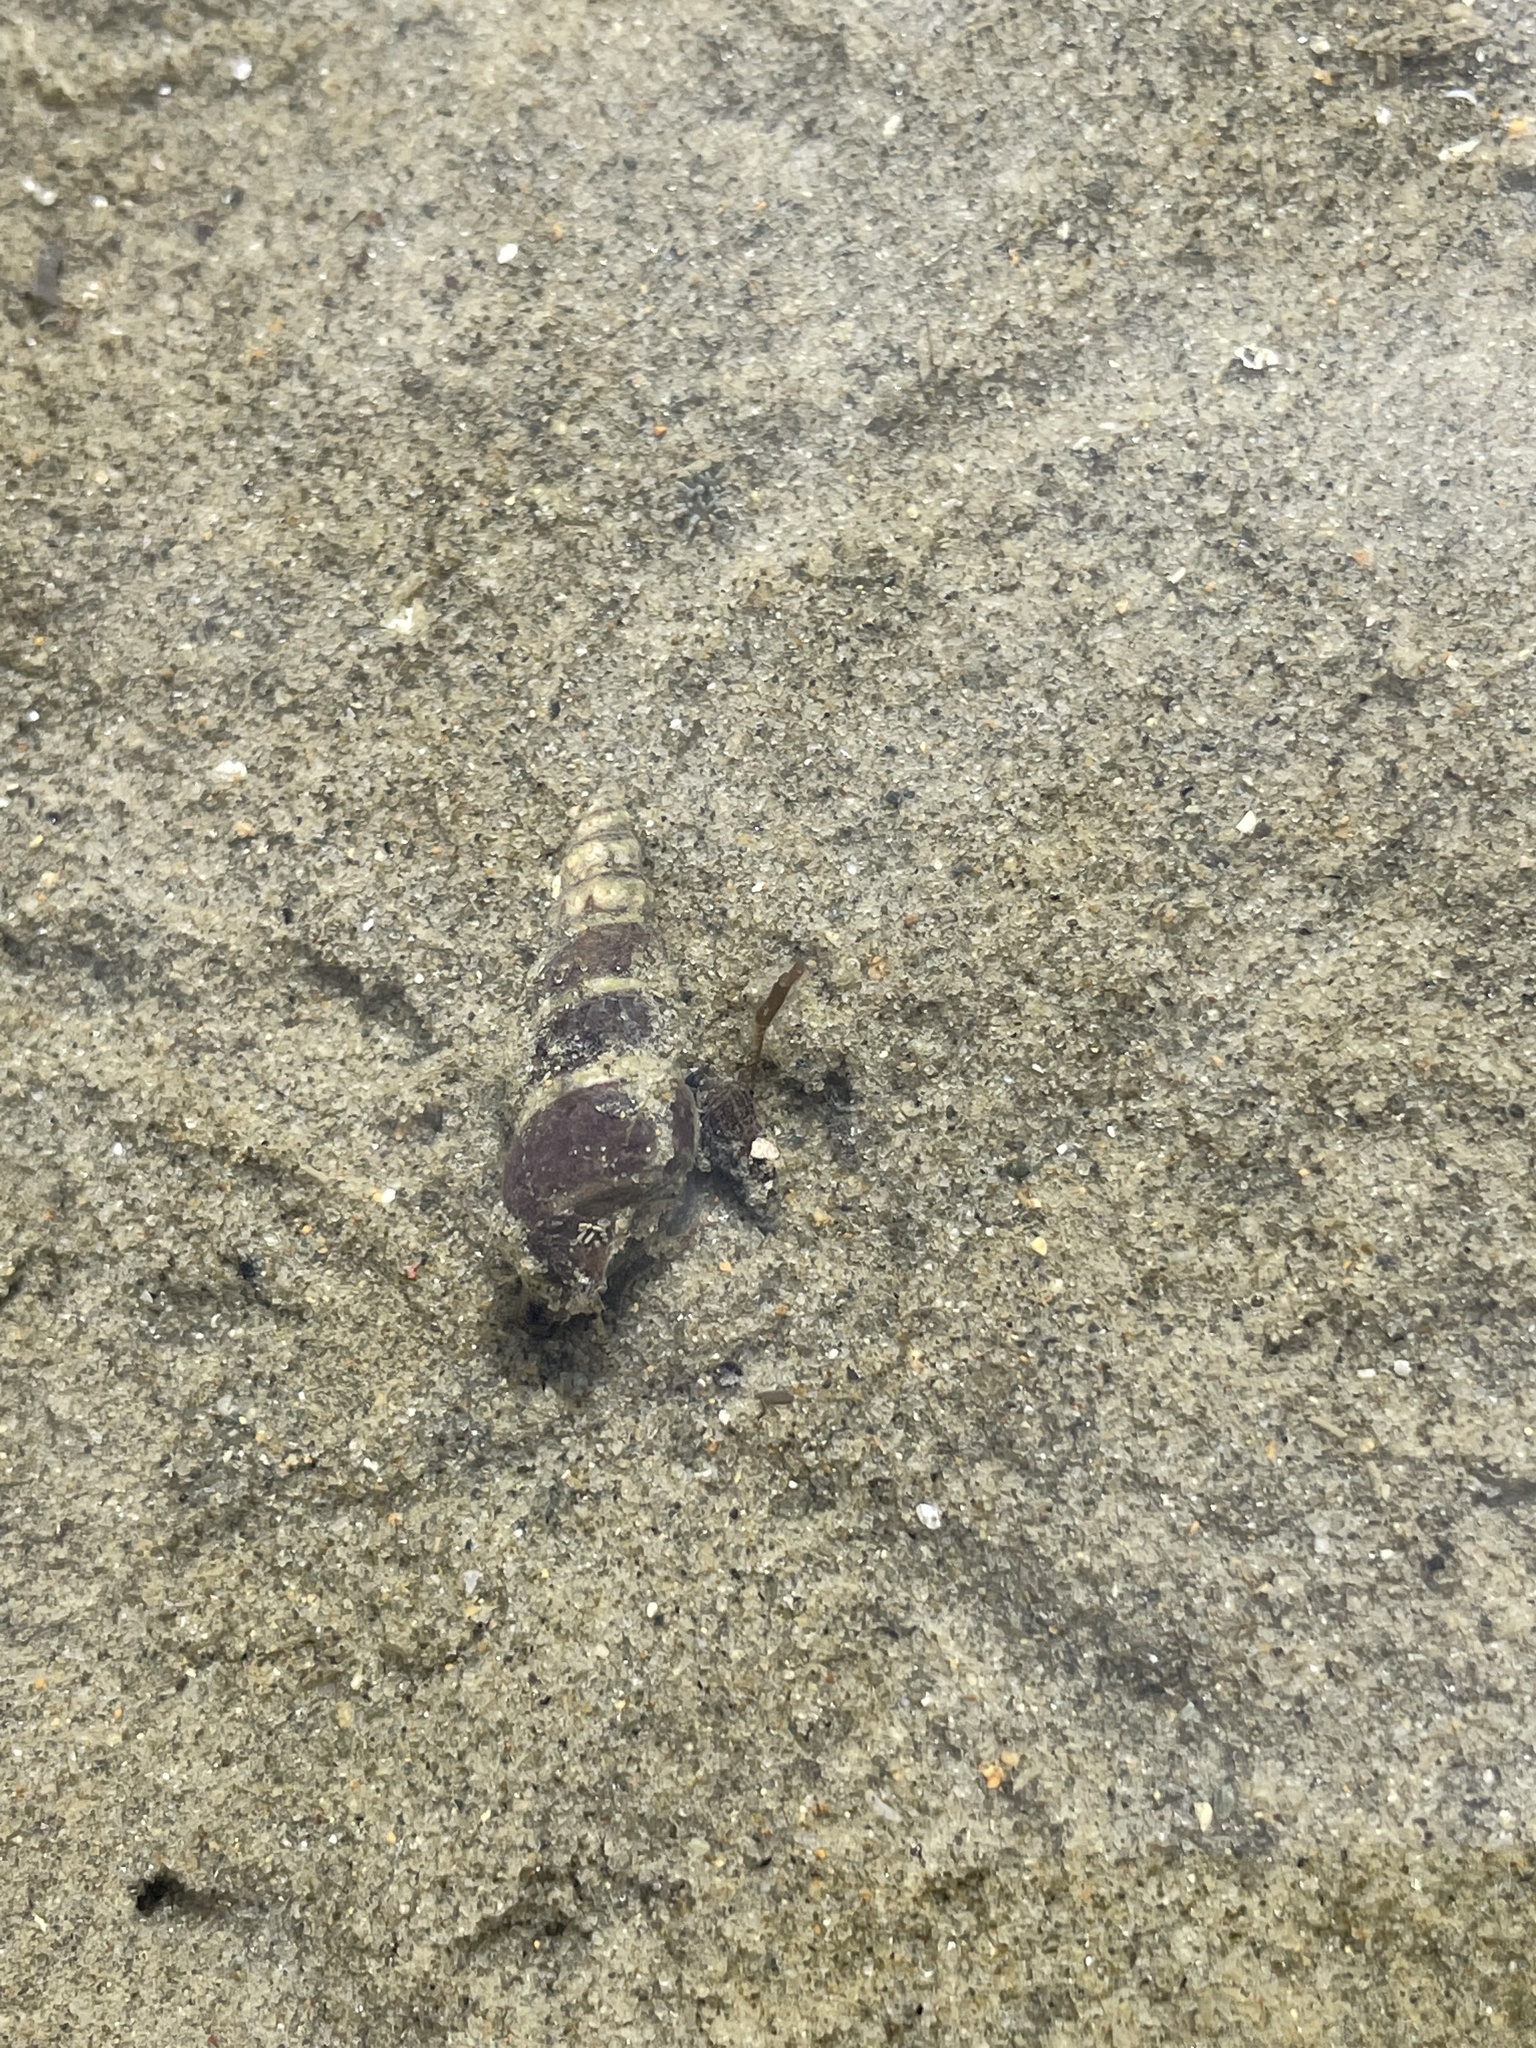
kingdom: Animalia
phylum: Mollusca
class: Gastropoda
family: Batillariidae
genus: Zeacumantus
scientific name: Zeacumantus lutulentus
